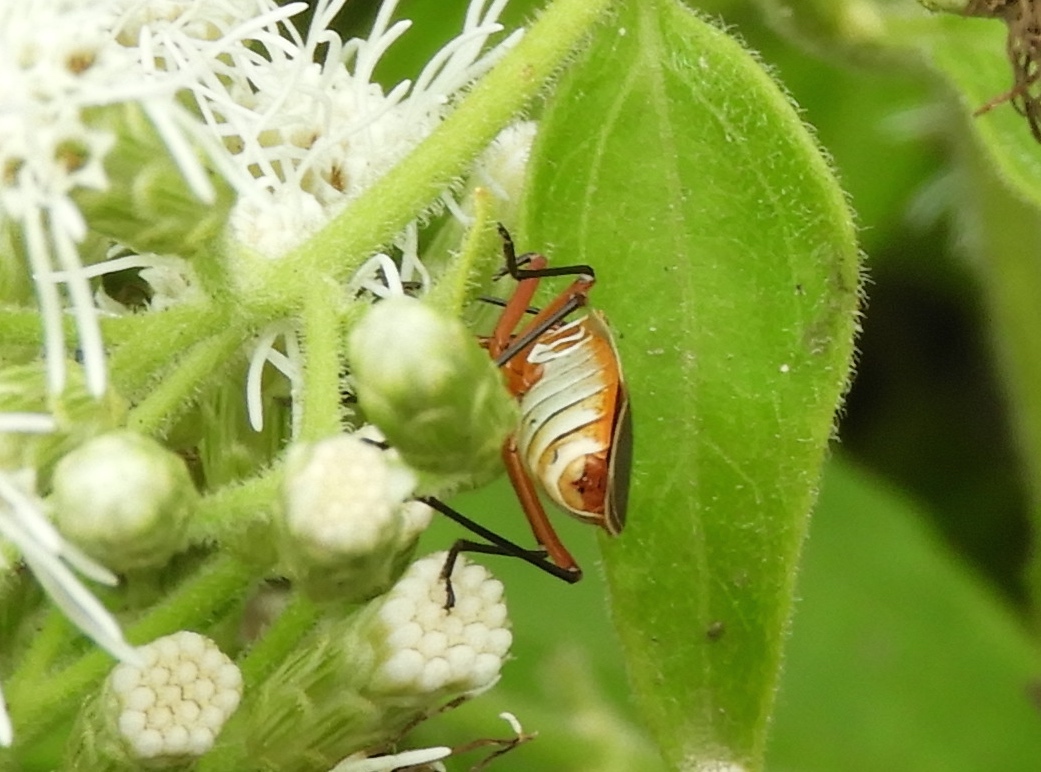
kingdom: Animalia
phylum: Arthropoda
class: Insecta
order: Hemiptera
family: Pyrrhocoridae
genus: Dysdercus
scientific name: Dysdercus
